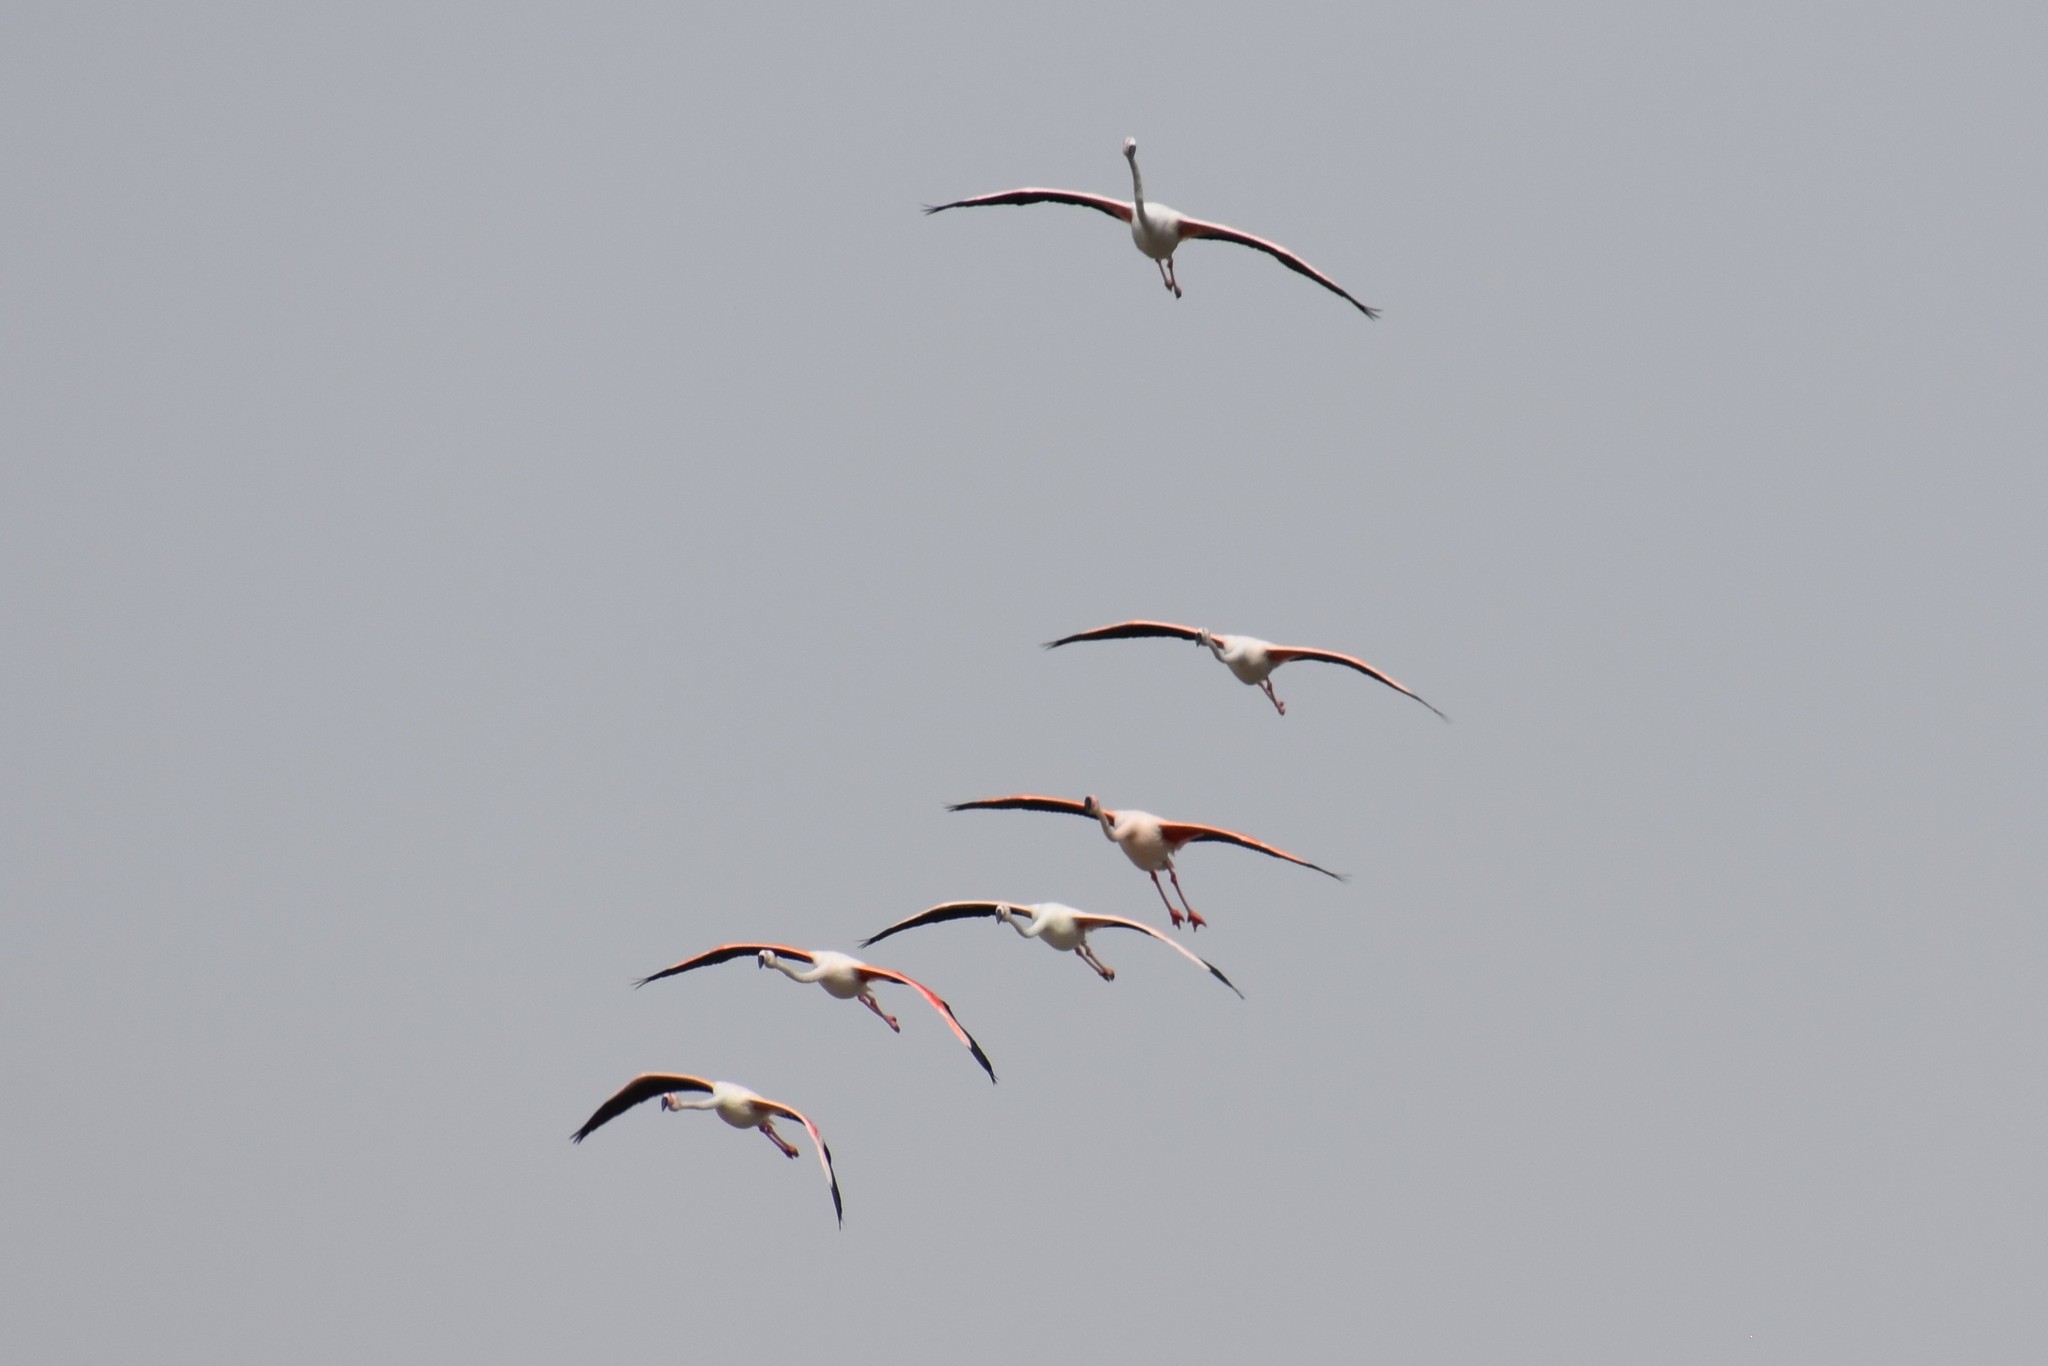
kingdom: Animalia
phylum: Chordata
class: Aves
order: Phoenicopteriformes
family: Phoenicopteridae
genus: Phoenicopterus
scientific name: Phoenicopterus roseus
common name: Greater flamingo
